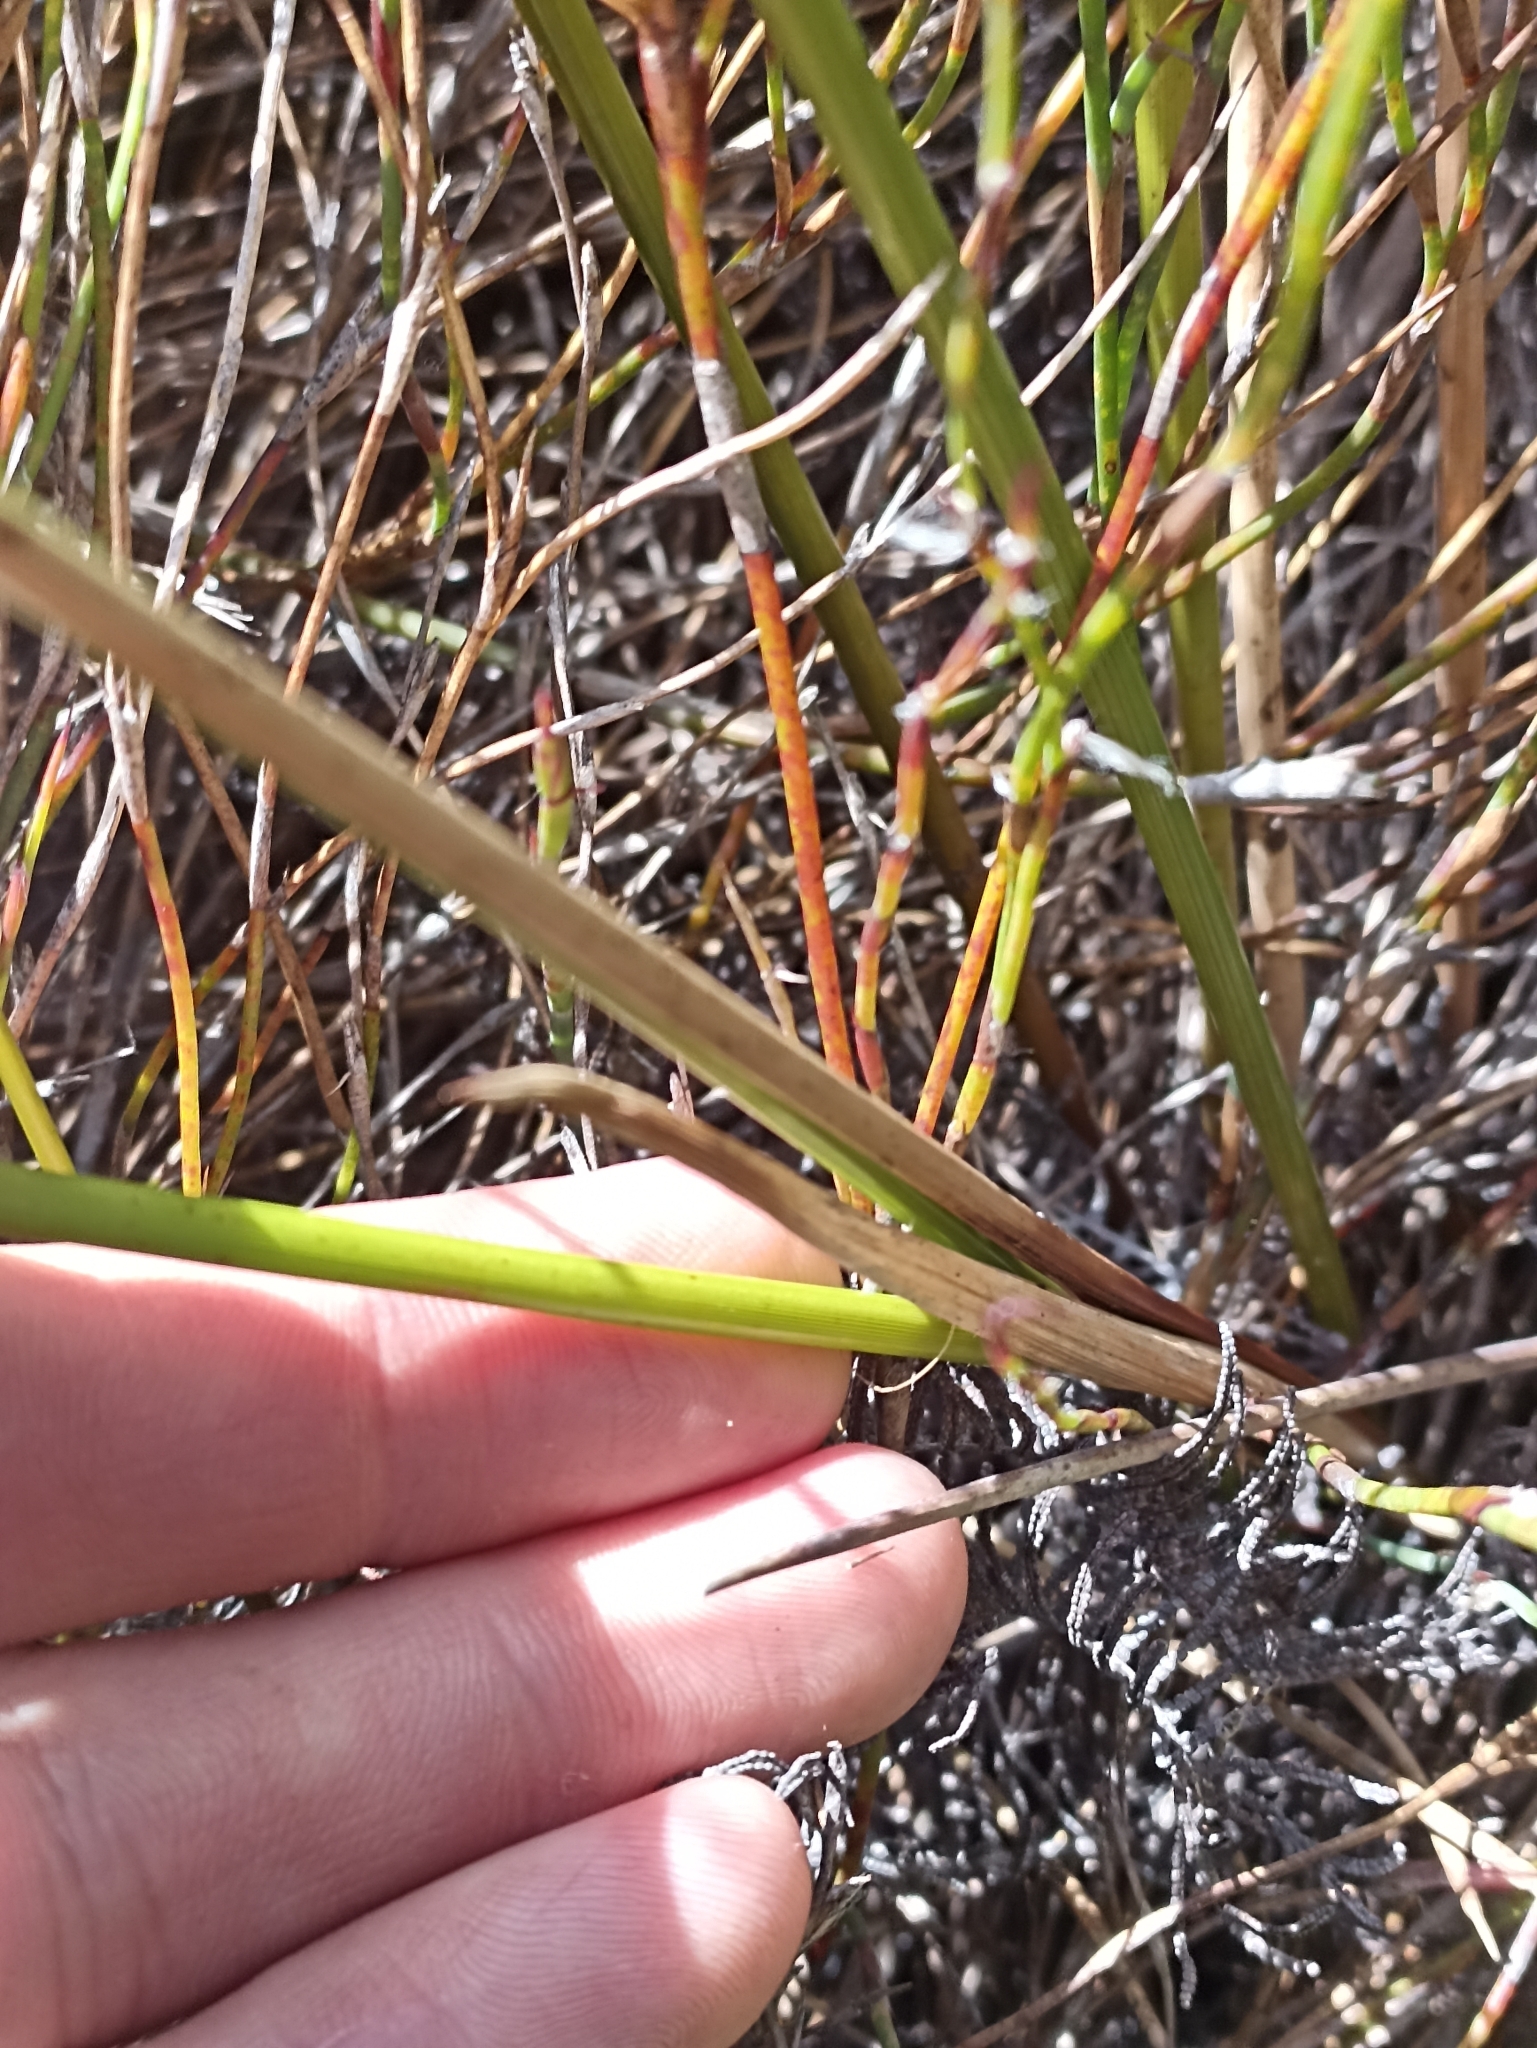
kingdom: Plantae
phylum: Tracheophyta
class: Liliopsida
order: Poales
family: Cyperaceae
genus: Machaerina
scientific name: Machaerina teretifolia
